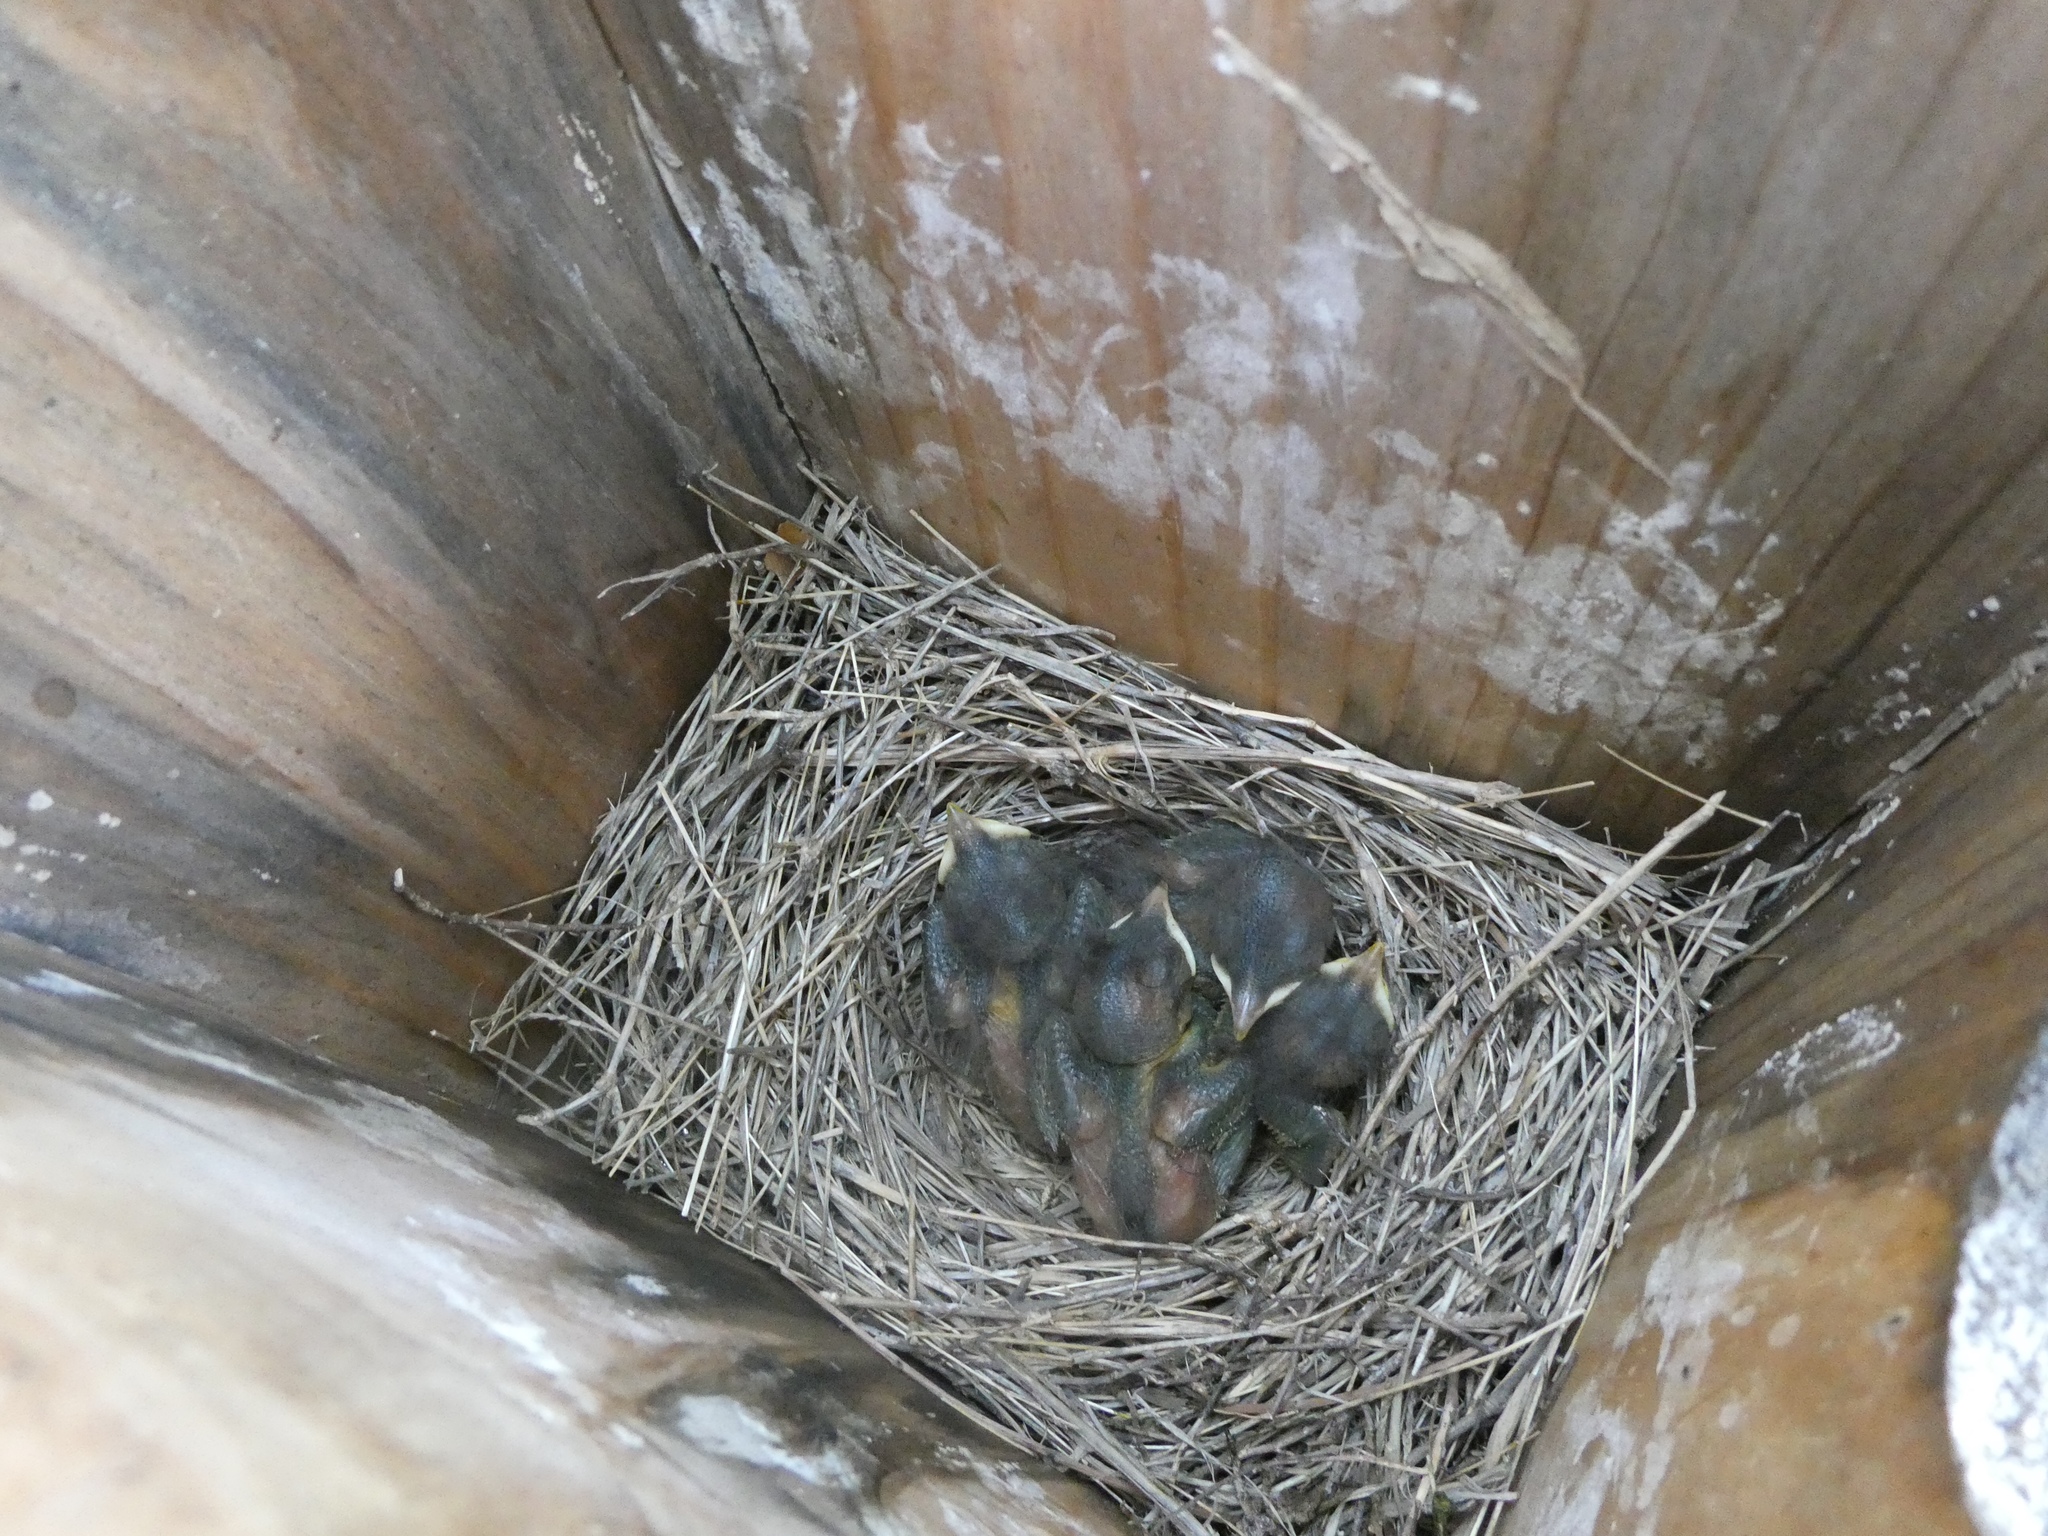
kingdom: Animalia
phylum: Chordata
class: Aves
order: Passeriformes
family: Turdidae
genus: Sialia
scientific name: Sialia sialis
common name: Eastern bluebird
